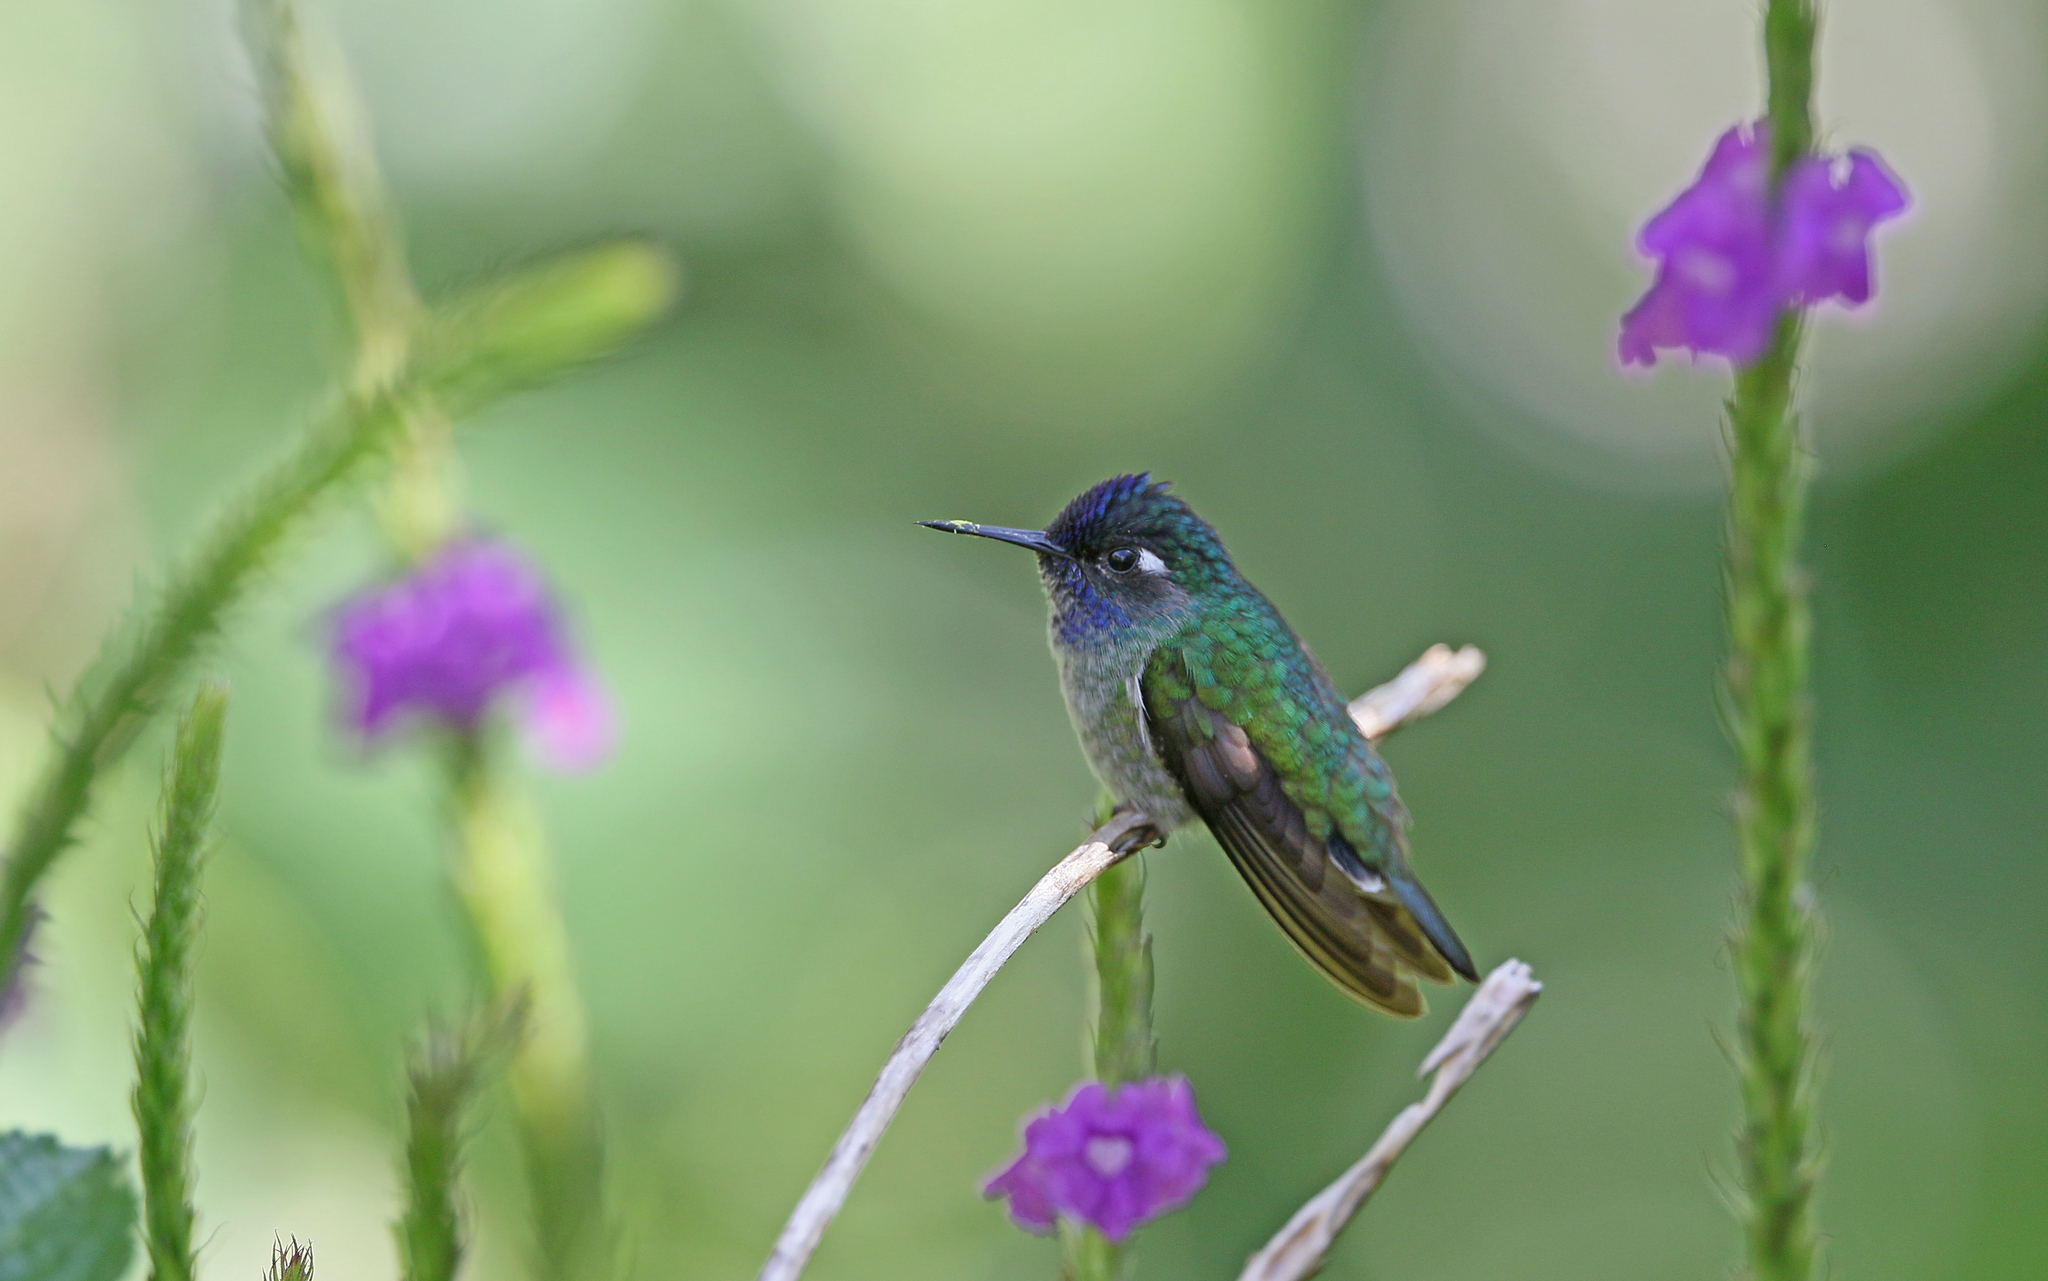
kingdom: Animalia
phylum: Chordata
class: Aves
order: Apodiformes
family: Trochilidae
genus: Klais
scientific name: Klais guimeti
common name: Violet-headed hummingbird
